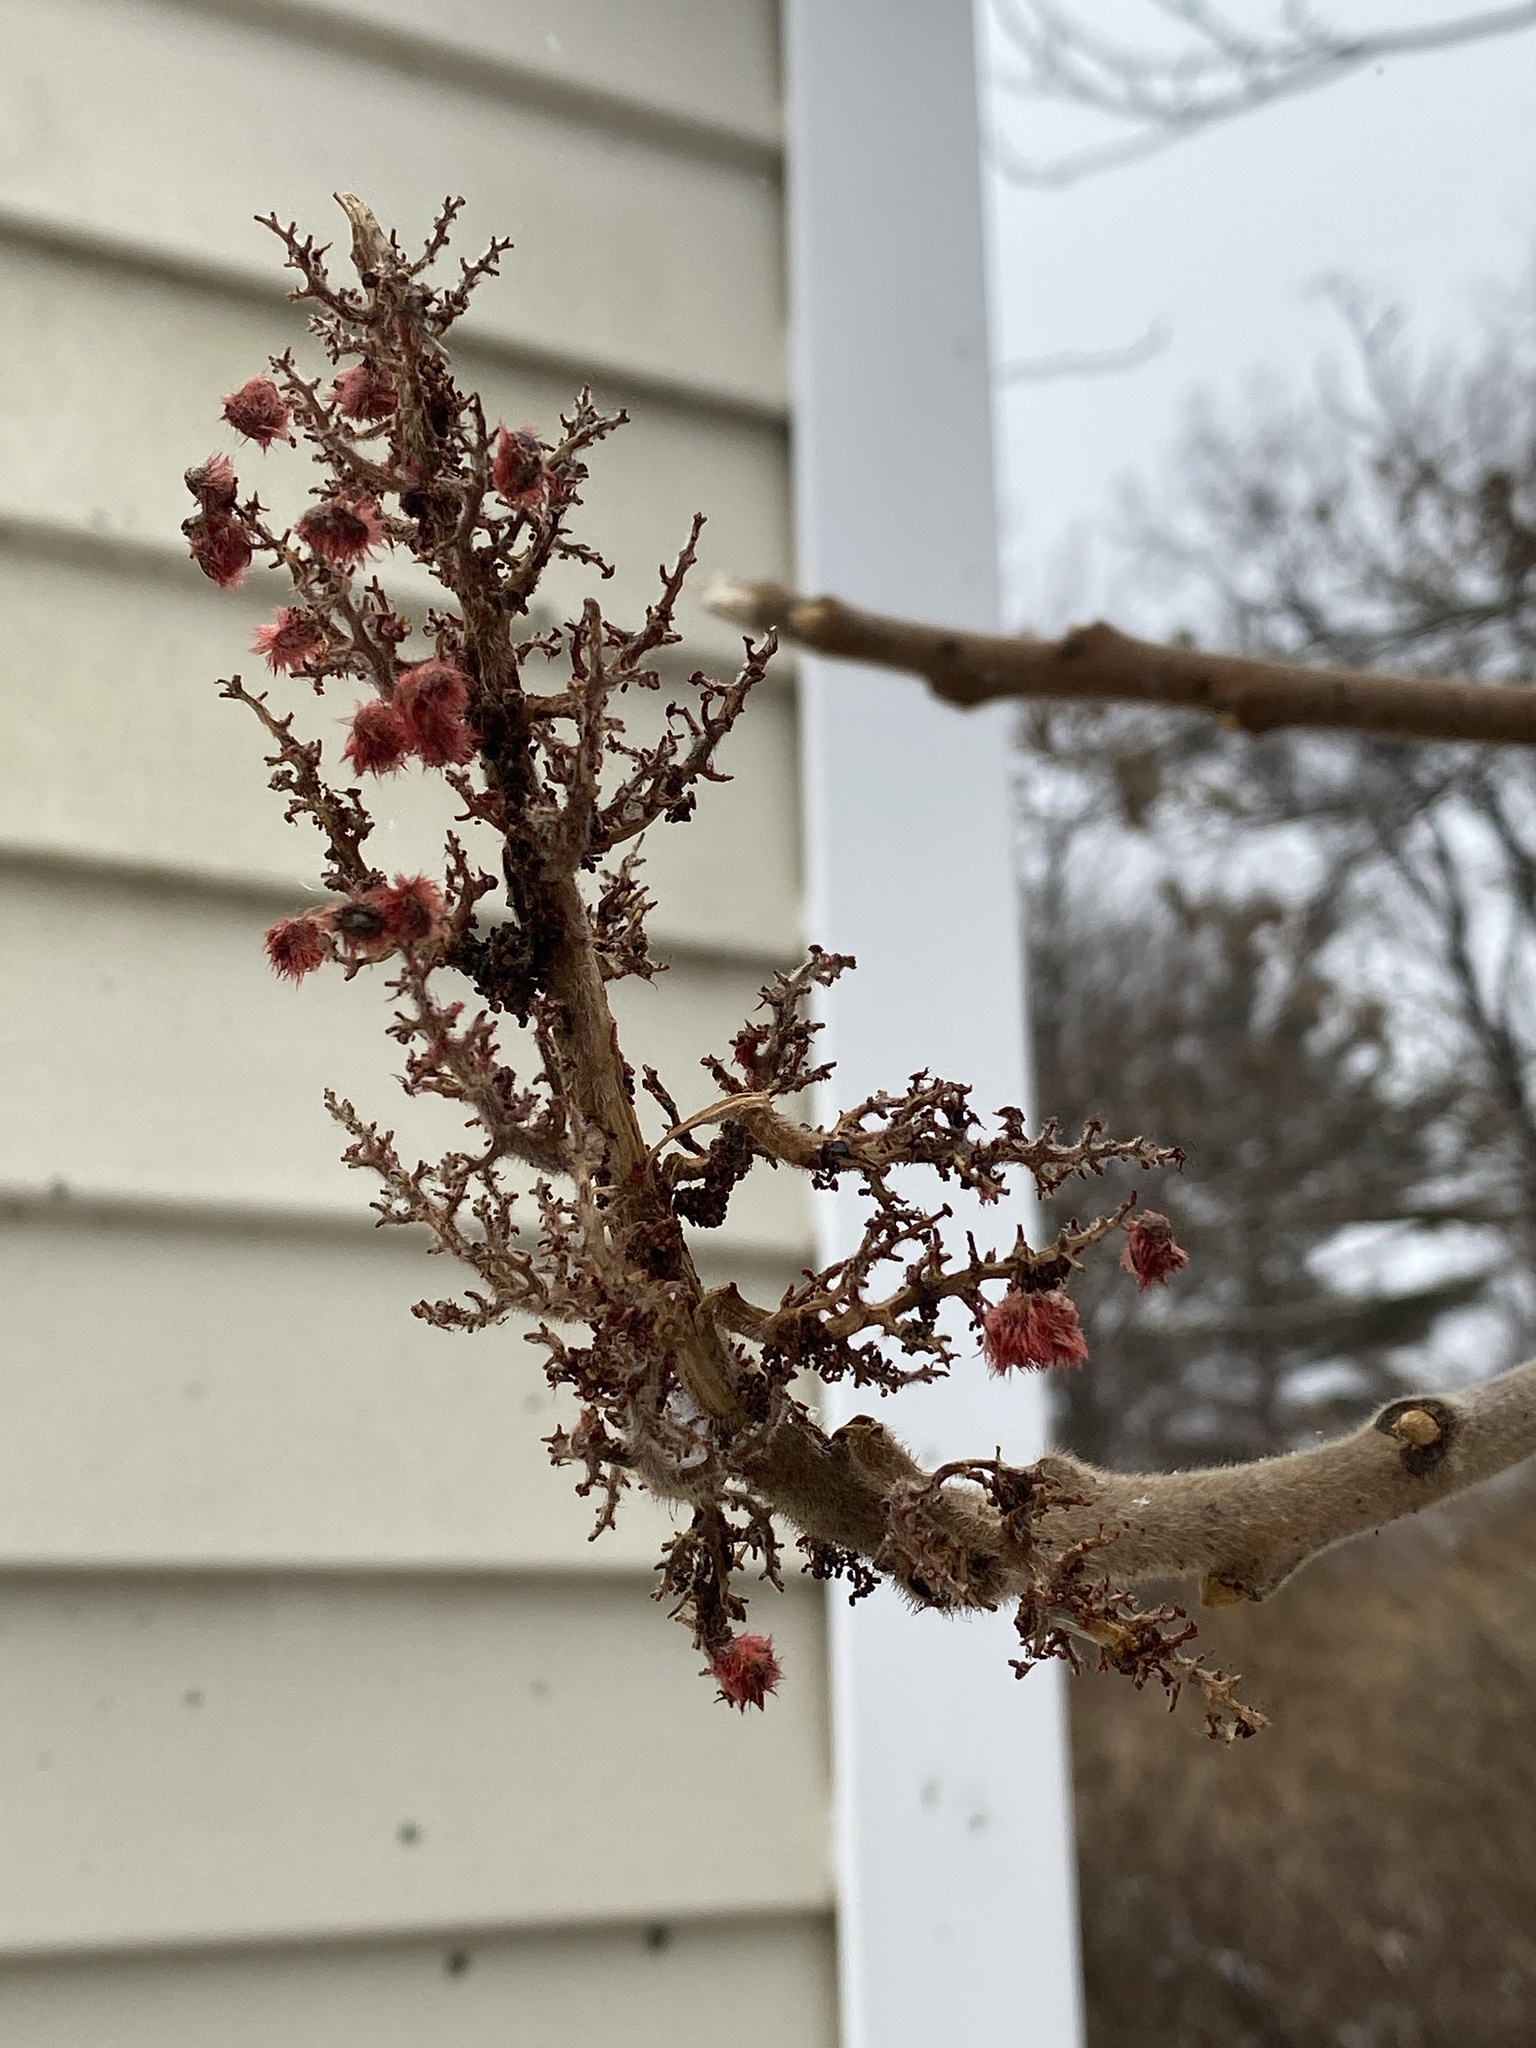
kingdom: Plantae
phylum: Tracheophyta
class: Magnoliopsida
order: Sapindales
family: Anacardiaceae
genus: Rhus
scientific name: Rhus typhina
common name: Staghorn sumac
